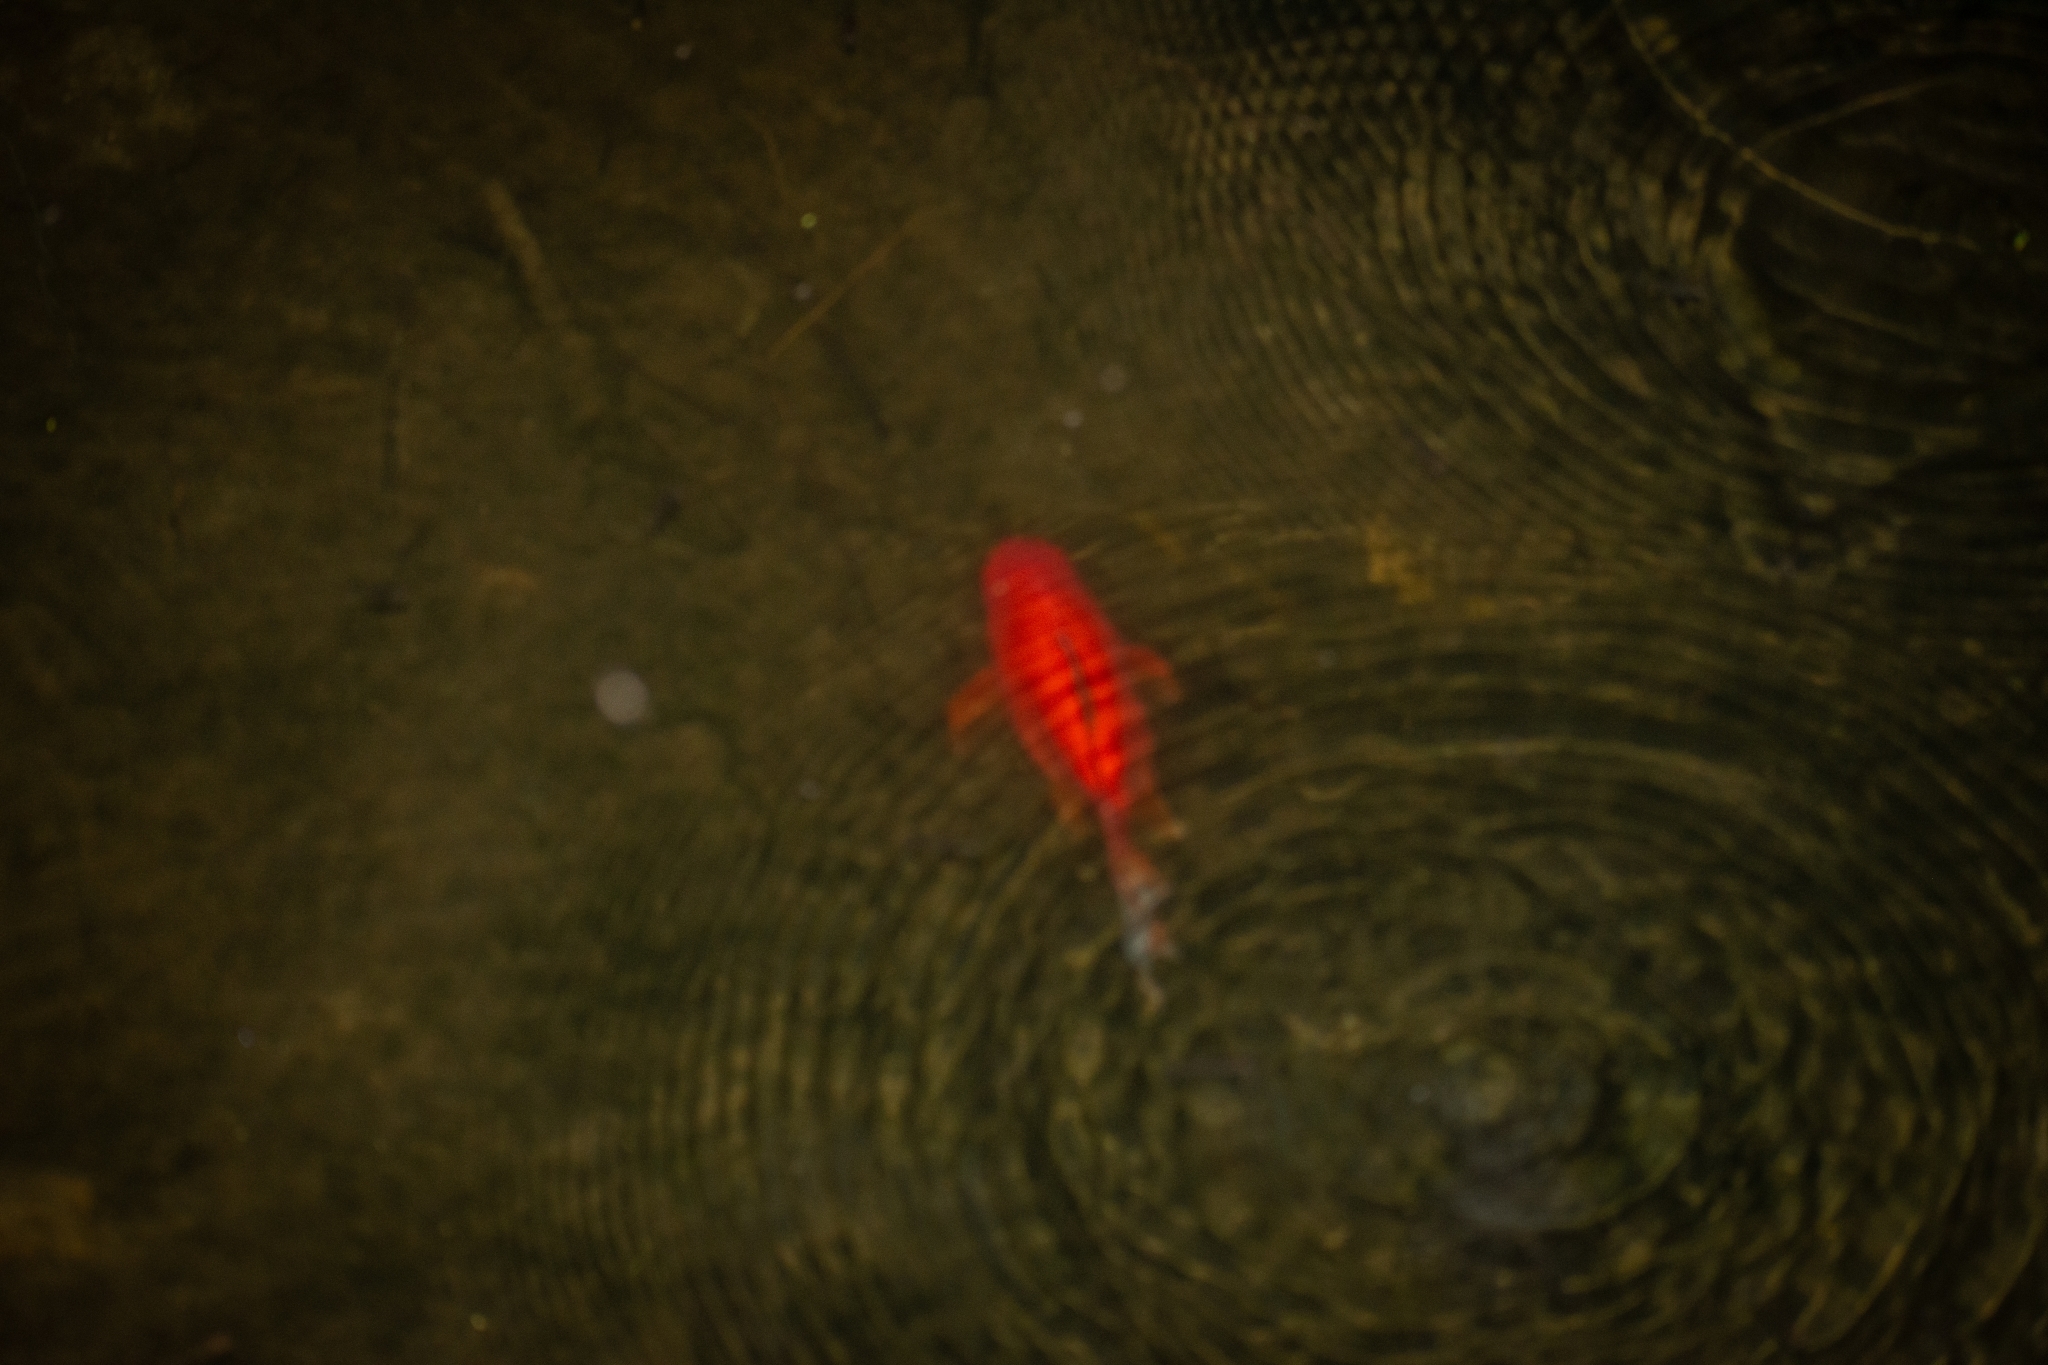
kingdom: Animalia
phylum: Chordata
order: Cypriniformes
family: Cyprinidae
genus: Carassius
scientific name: Carassius auratus
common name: Goldfish
